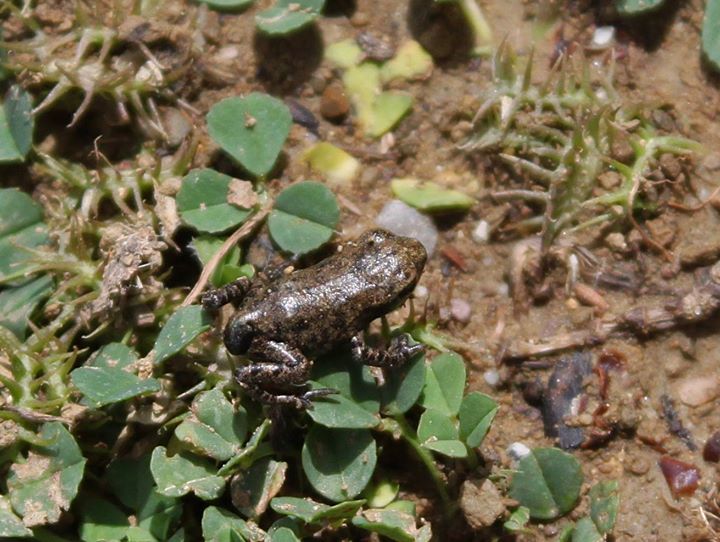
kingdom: Animalia
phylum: Chordata
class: Amphibia
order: Anura
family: Bufonidae
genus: Bufo
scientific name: Bufo bufo
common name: Common toad
